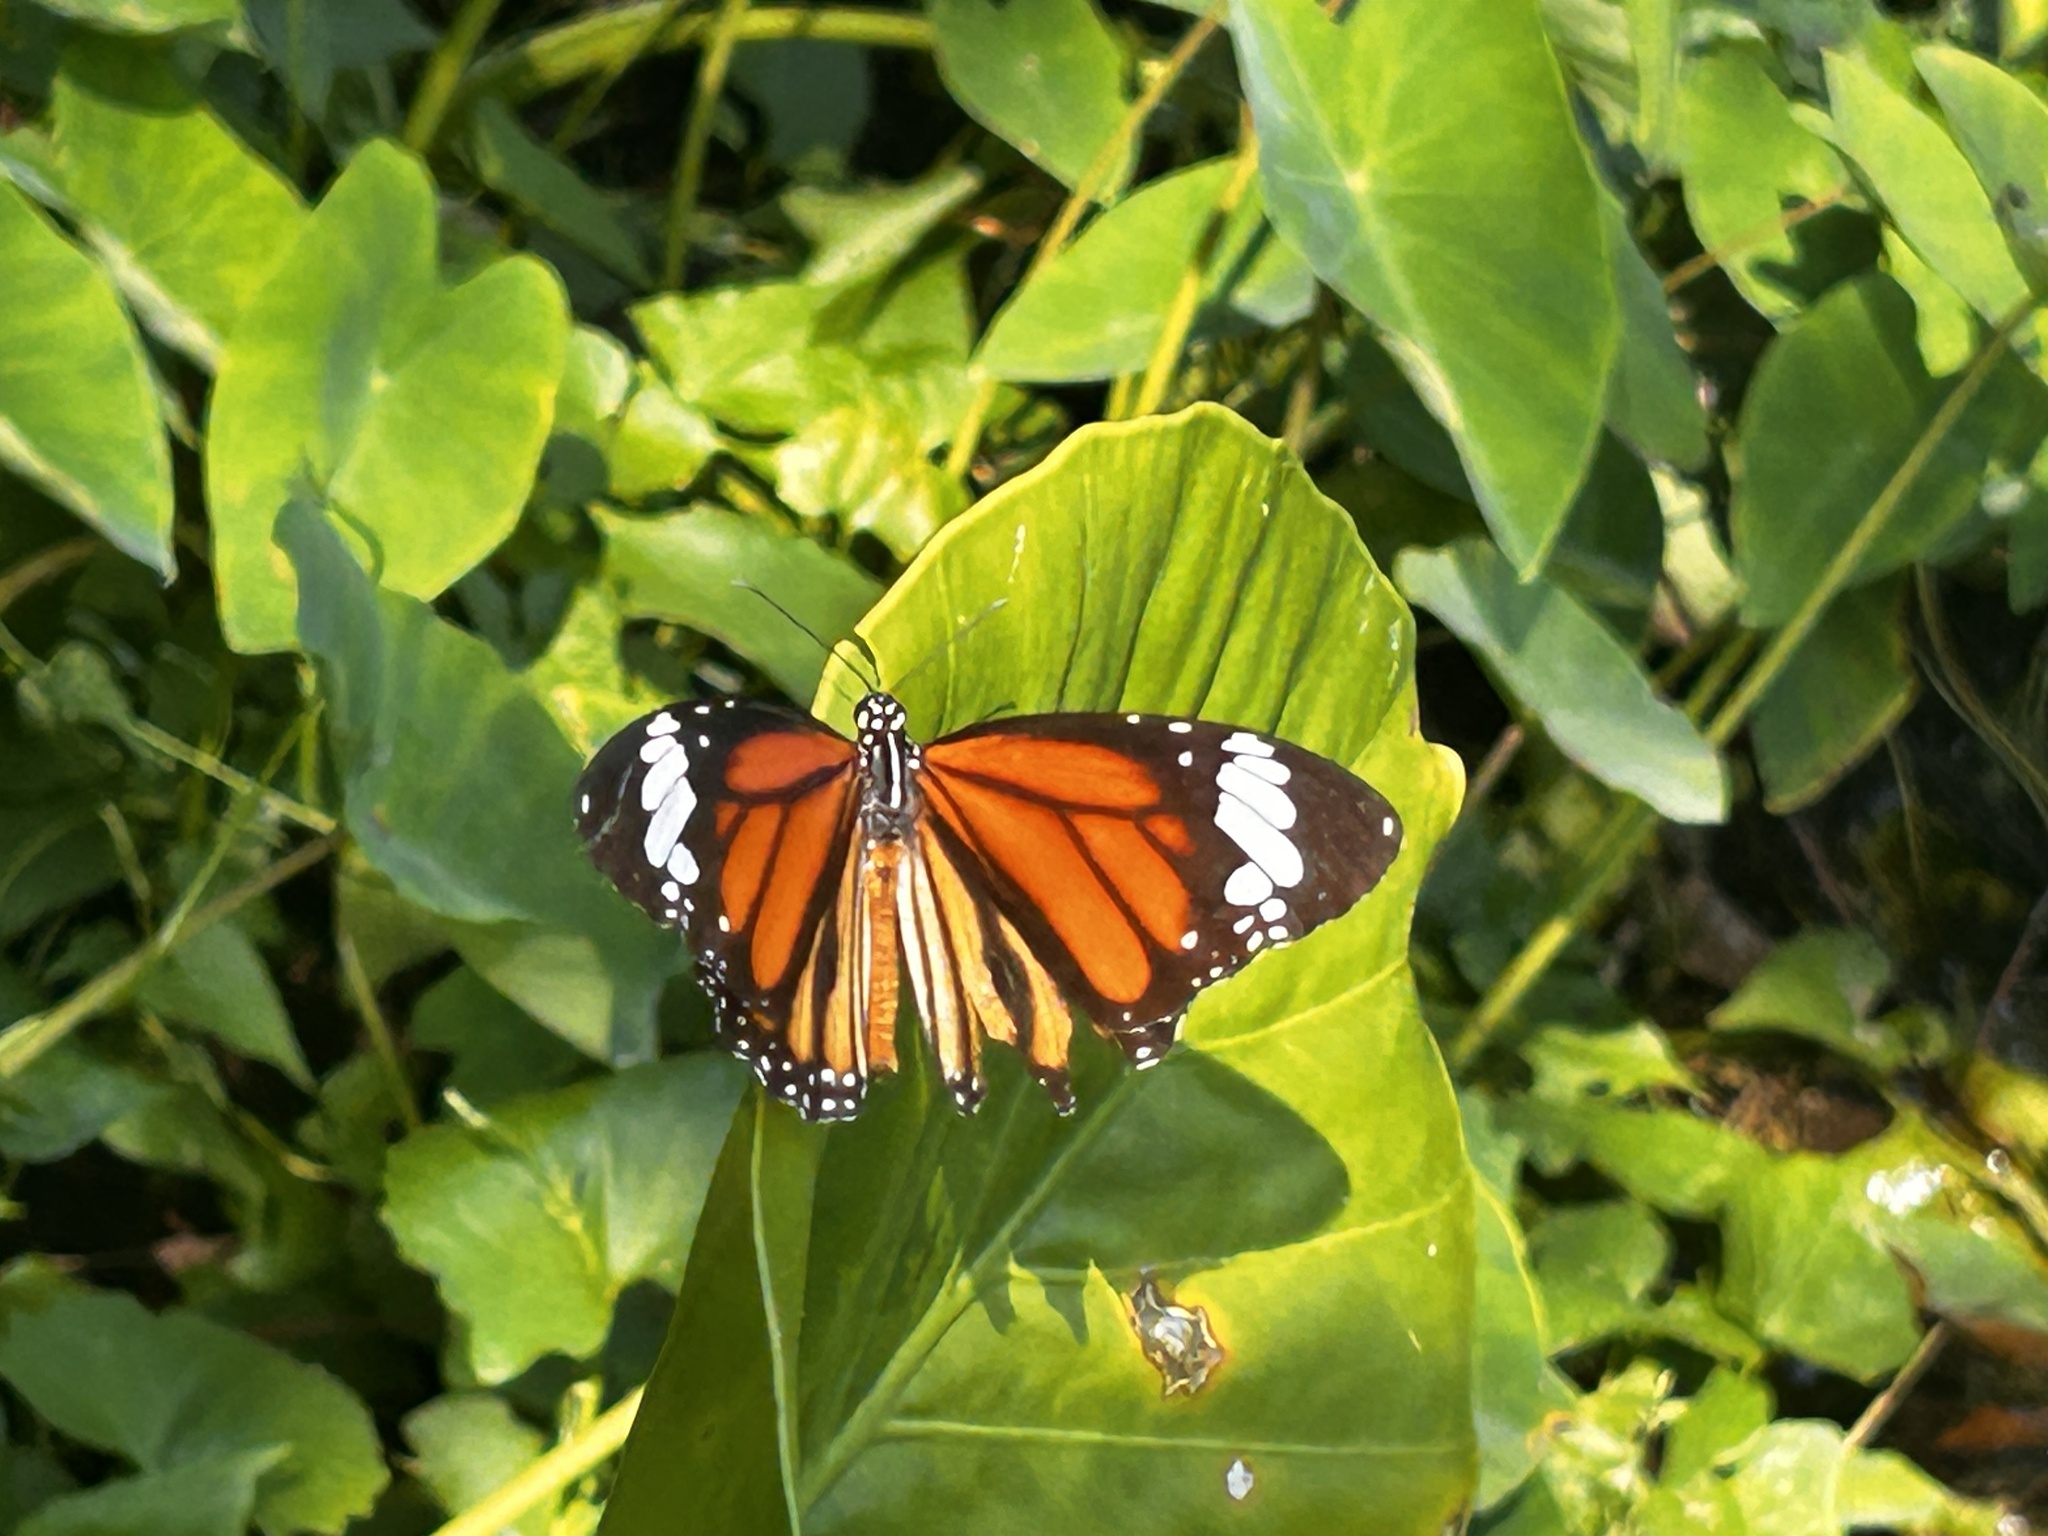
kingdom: Animalia
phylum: Arthropoda
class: Insecta
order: Lepidoptera
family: Nymphalidae
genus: Danaus
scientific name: Danaus genutia
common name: Common tiger butterfly
